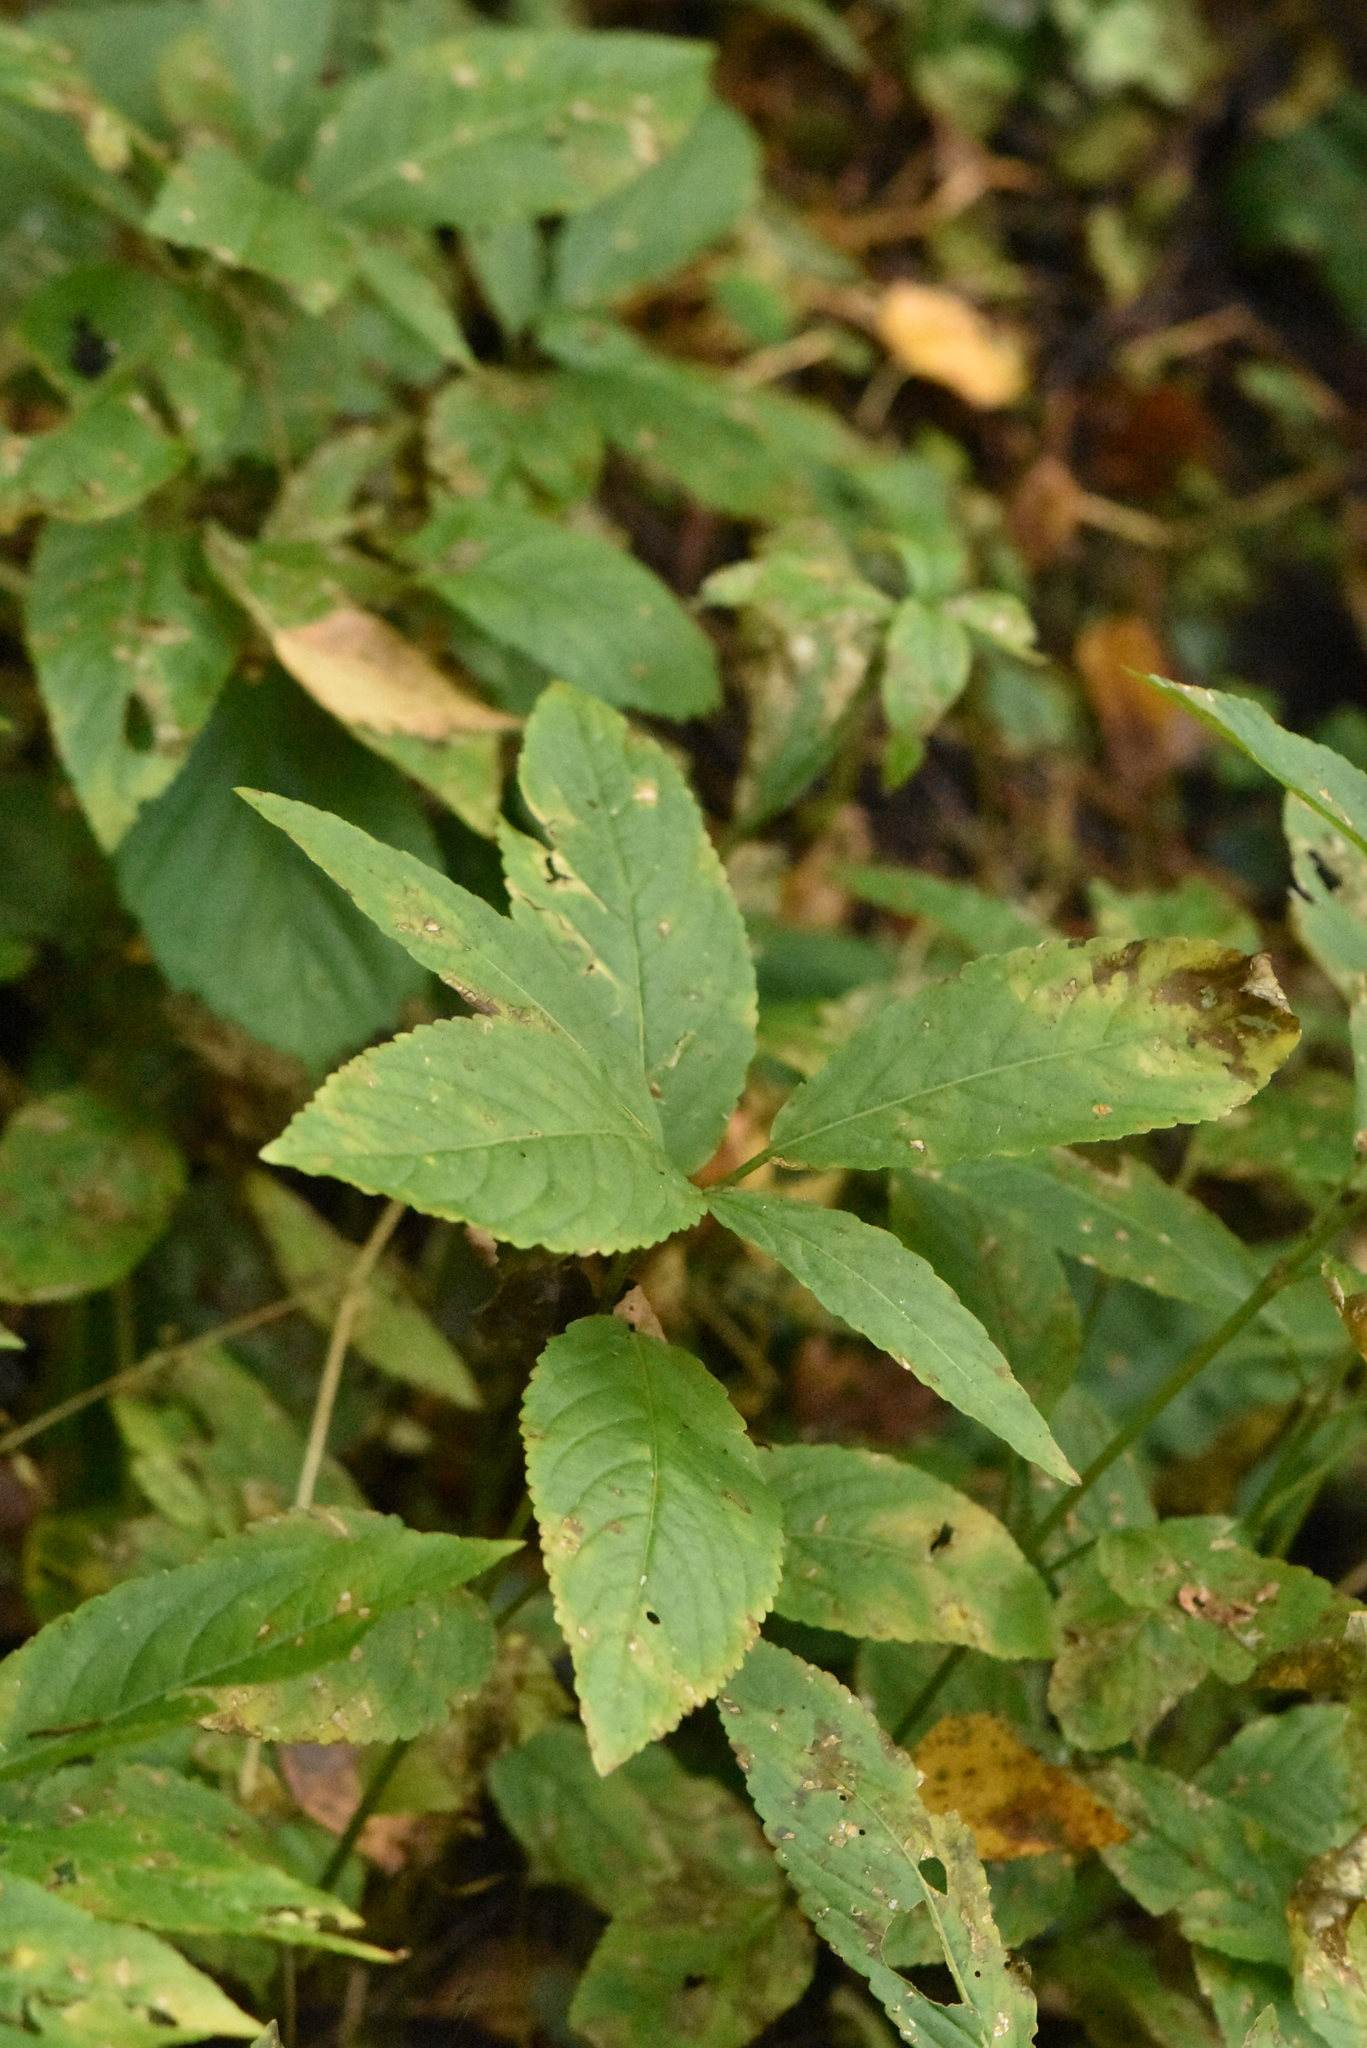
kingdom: Plantae
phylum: Tracheophyta
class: Magnoliopsida
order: Malpighiales
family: Euphorbiaceae
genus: Mercurialis
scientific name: Mercurialis perennis
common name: Dog mercury
